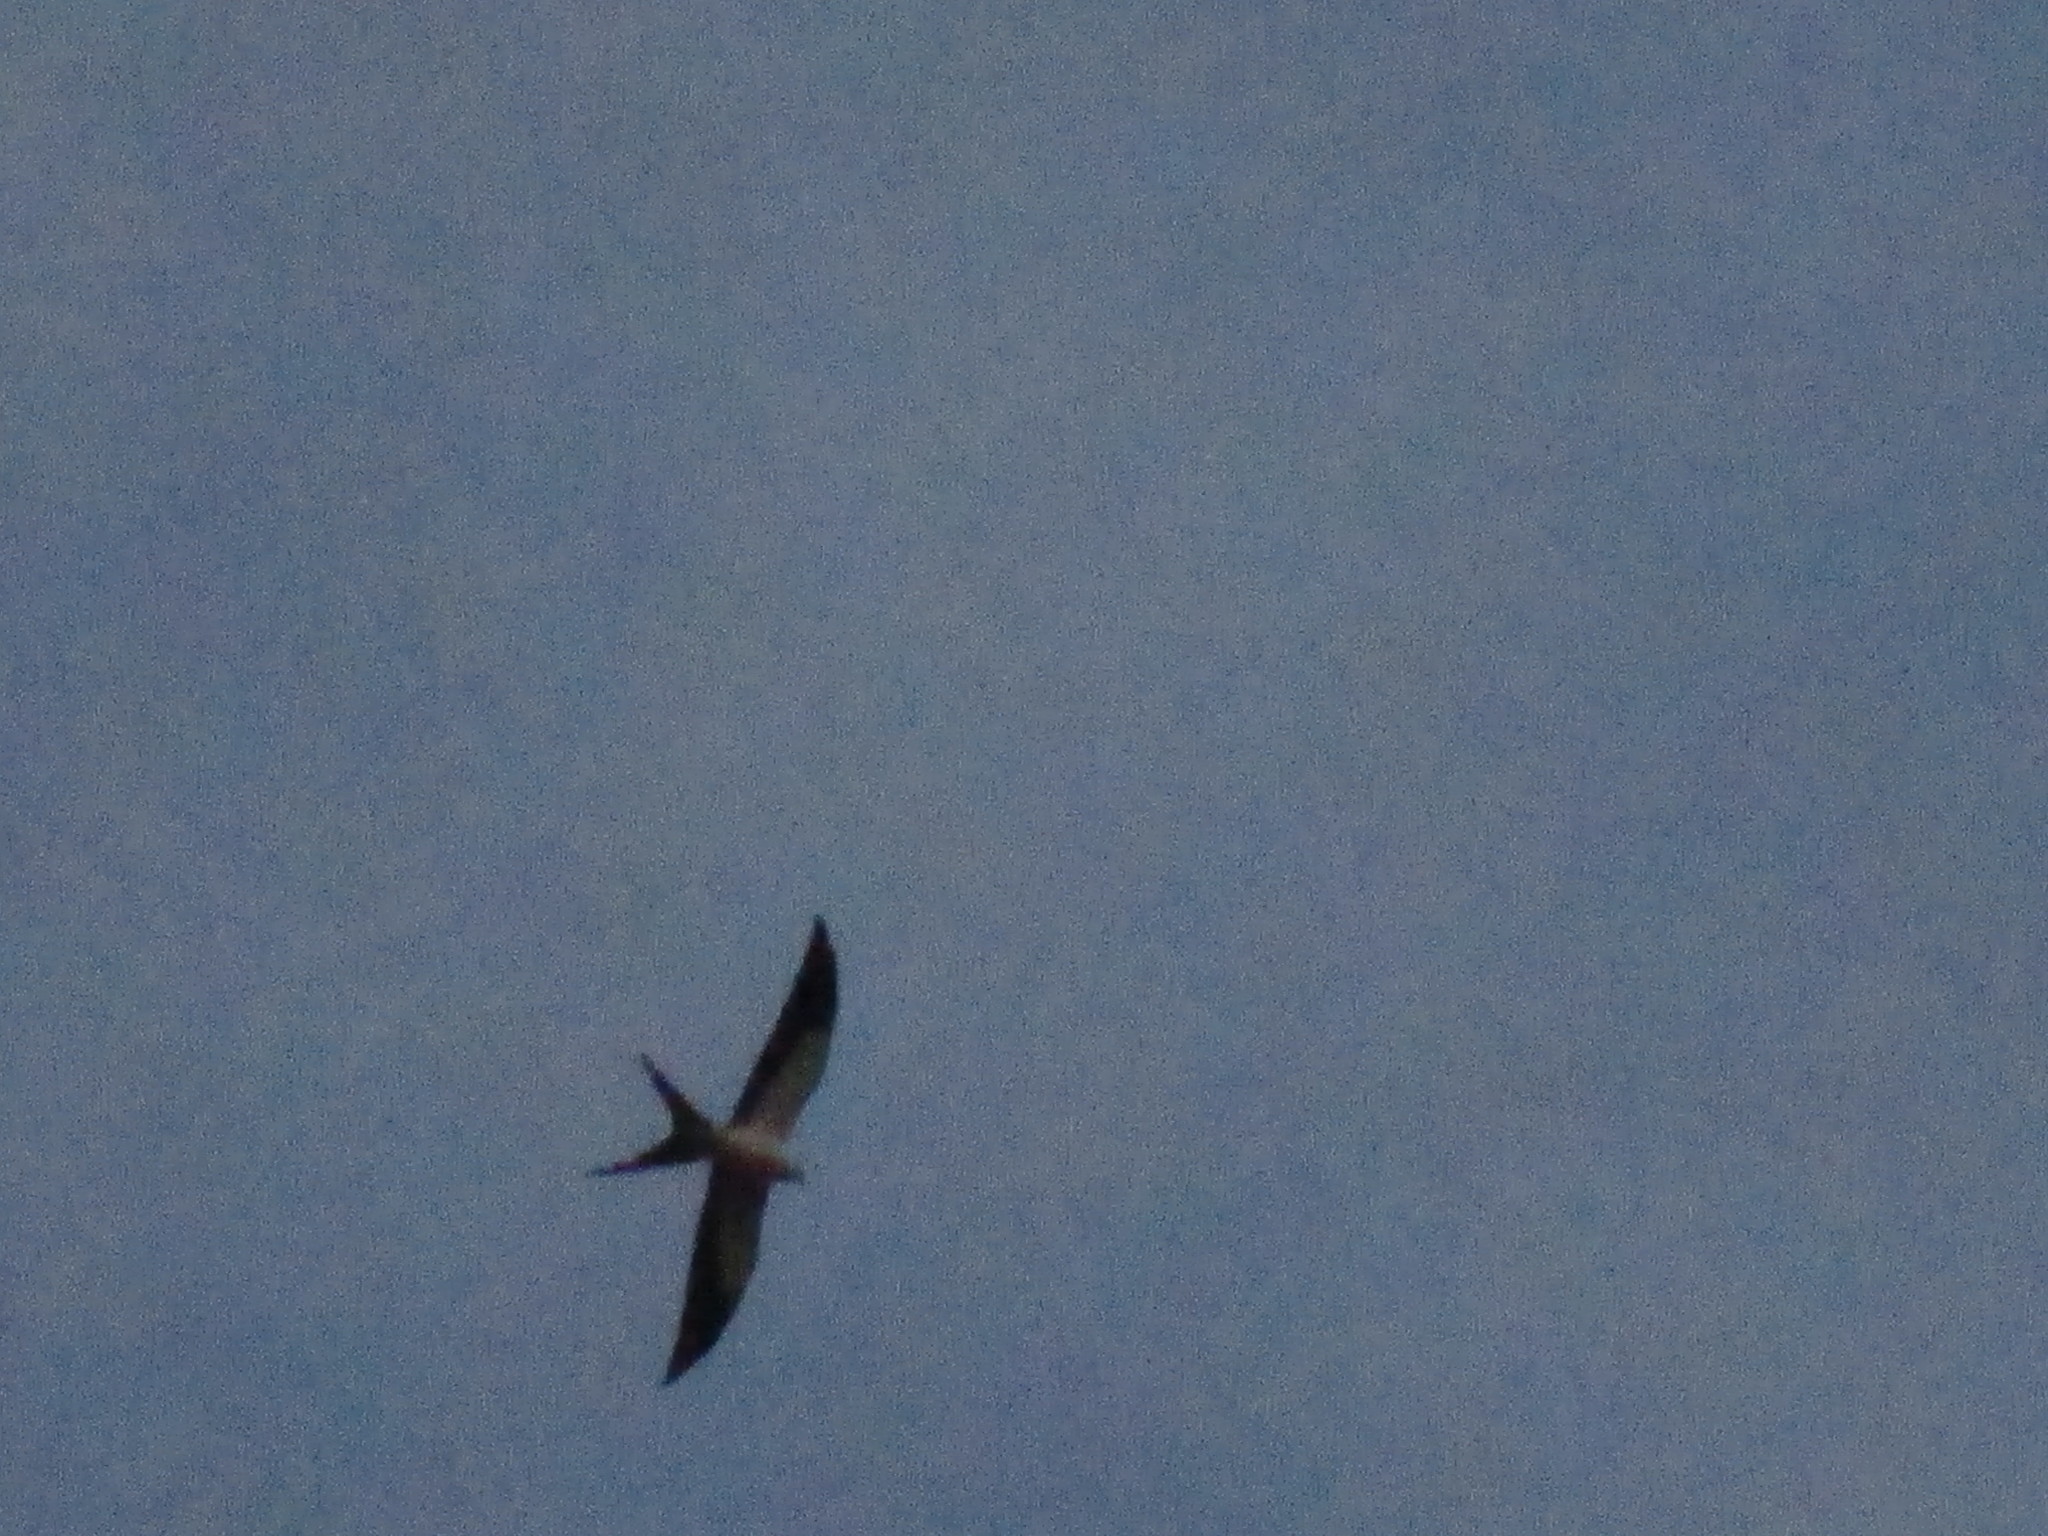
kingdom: Animalia
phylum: Chordata
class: Aves
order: Accipitriformes
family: Accipitridae
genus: Elanoides
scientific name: Elanoides forficatus
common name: Swallow-tailed kite
